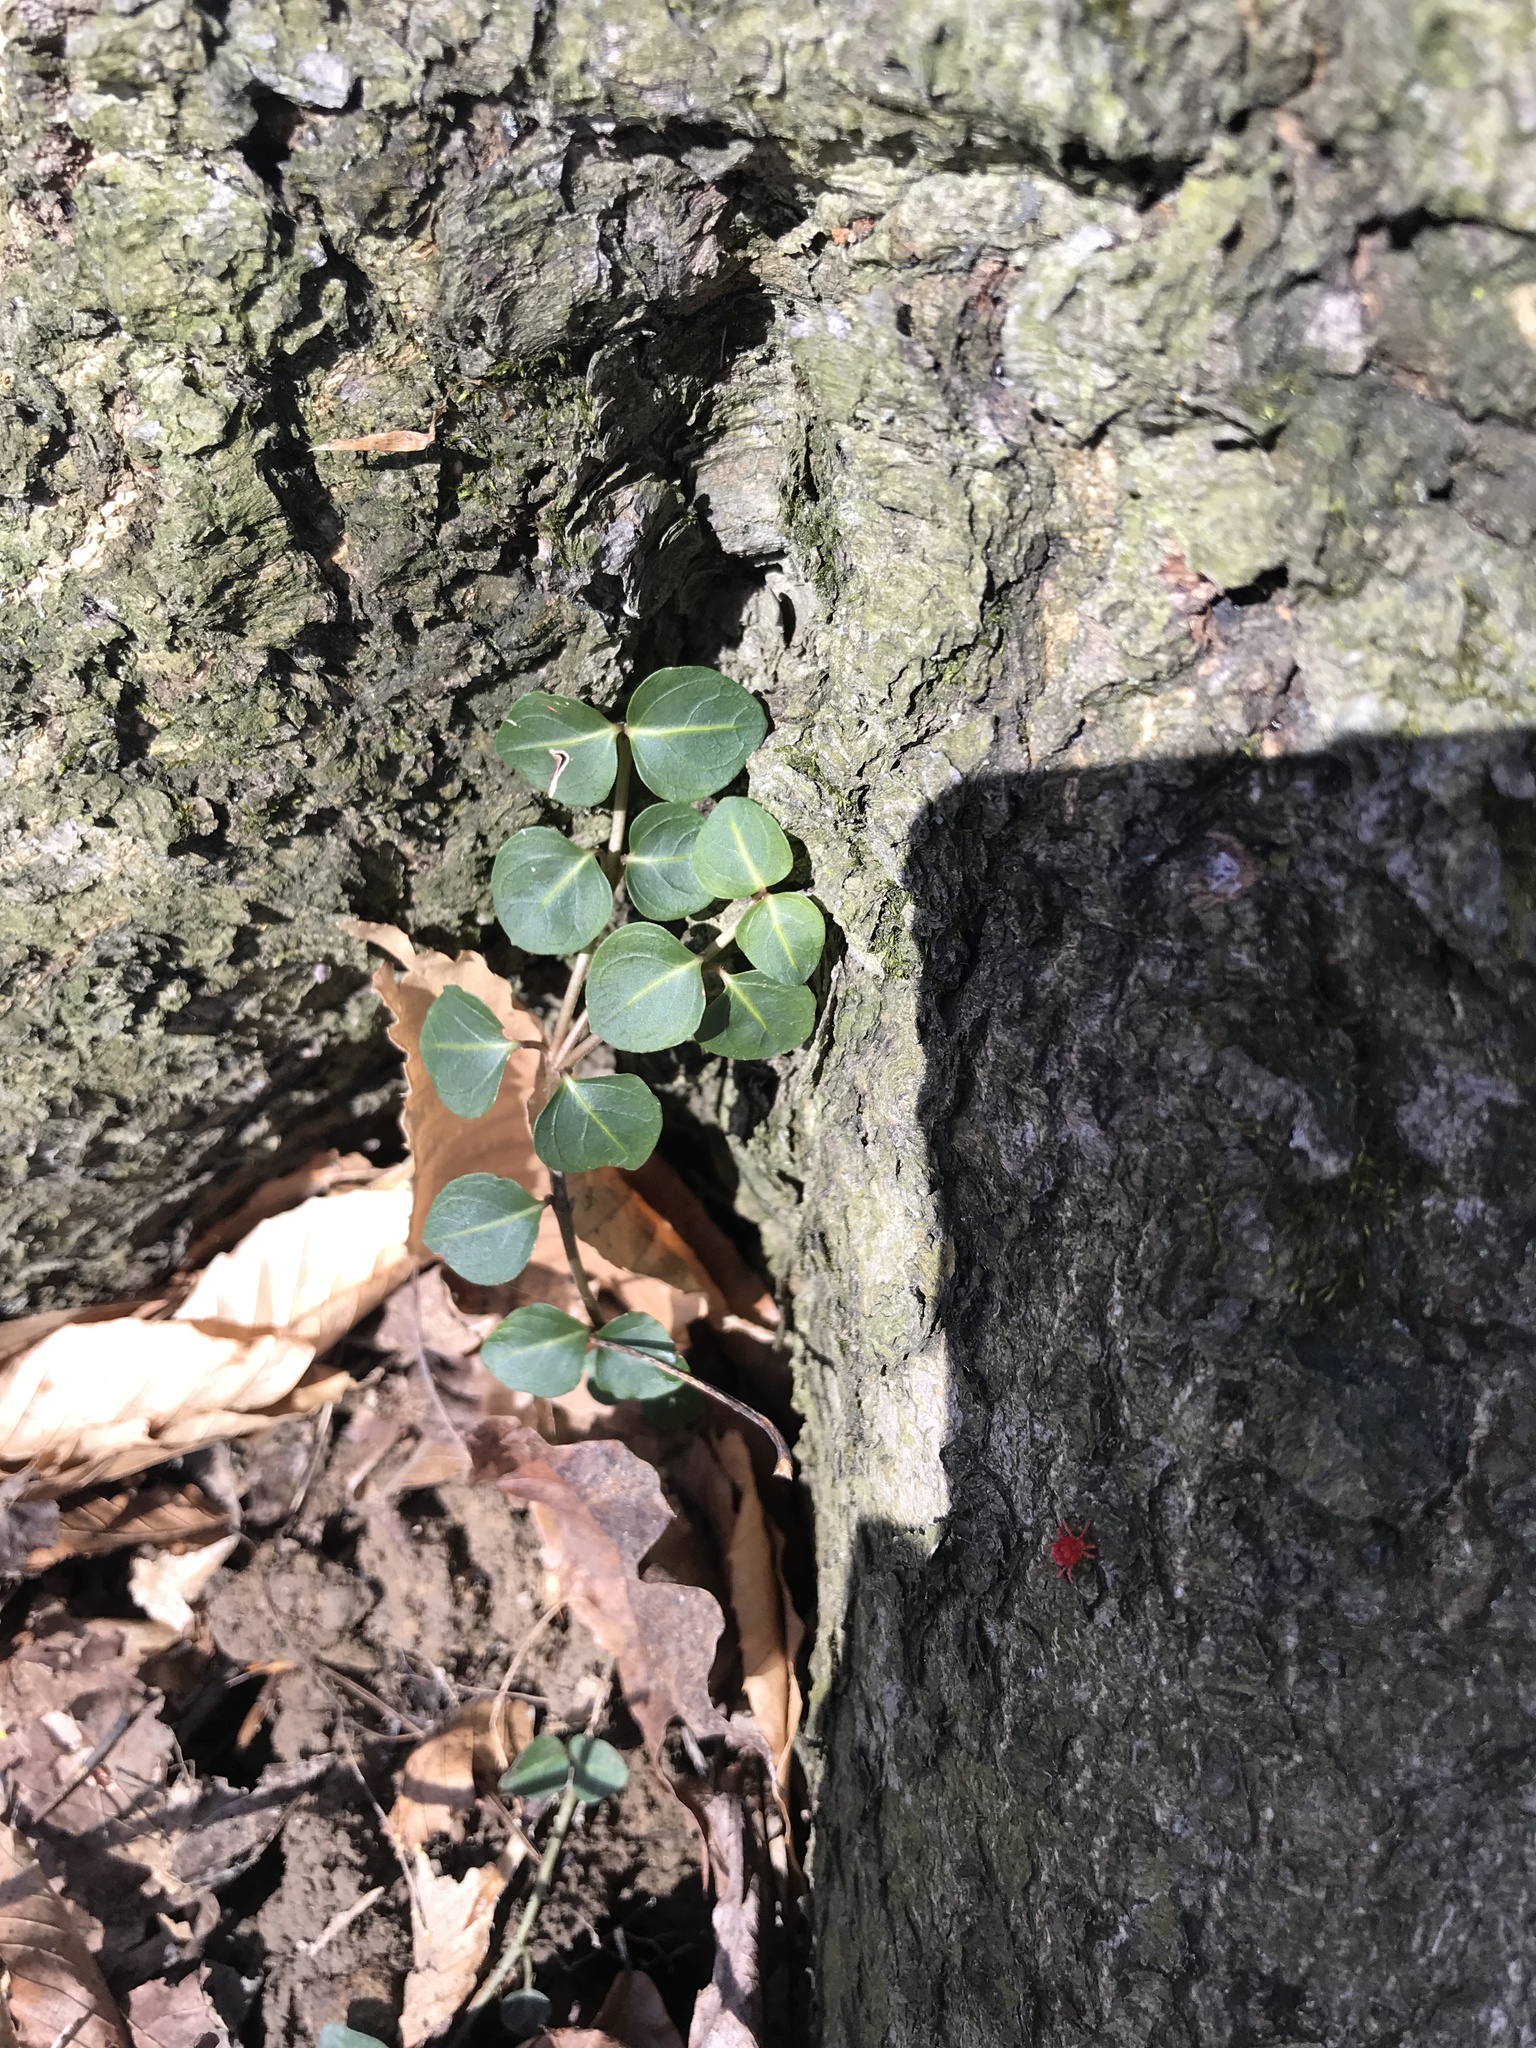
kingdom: Plantae
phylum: Tracheophyta
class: Magnoliopsida
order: Gentianales
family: Rubiaceae
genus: Mitchella
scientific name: Mitchella repens
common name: Partridge-berry
